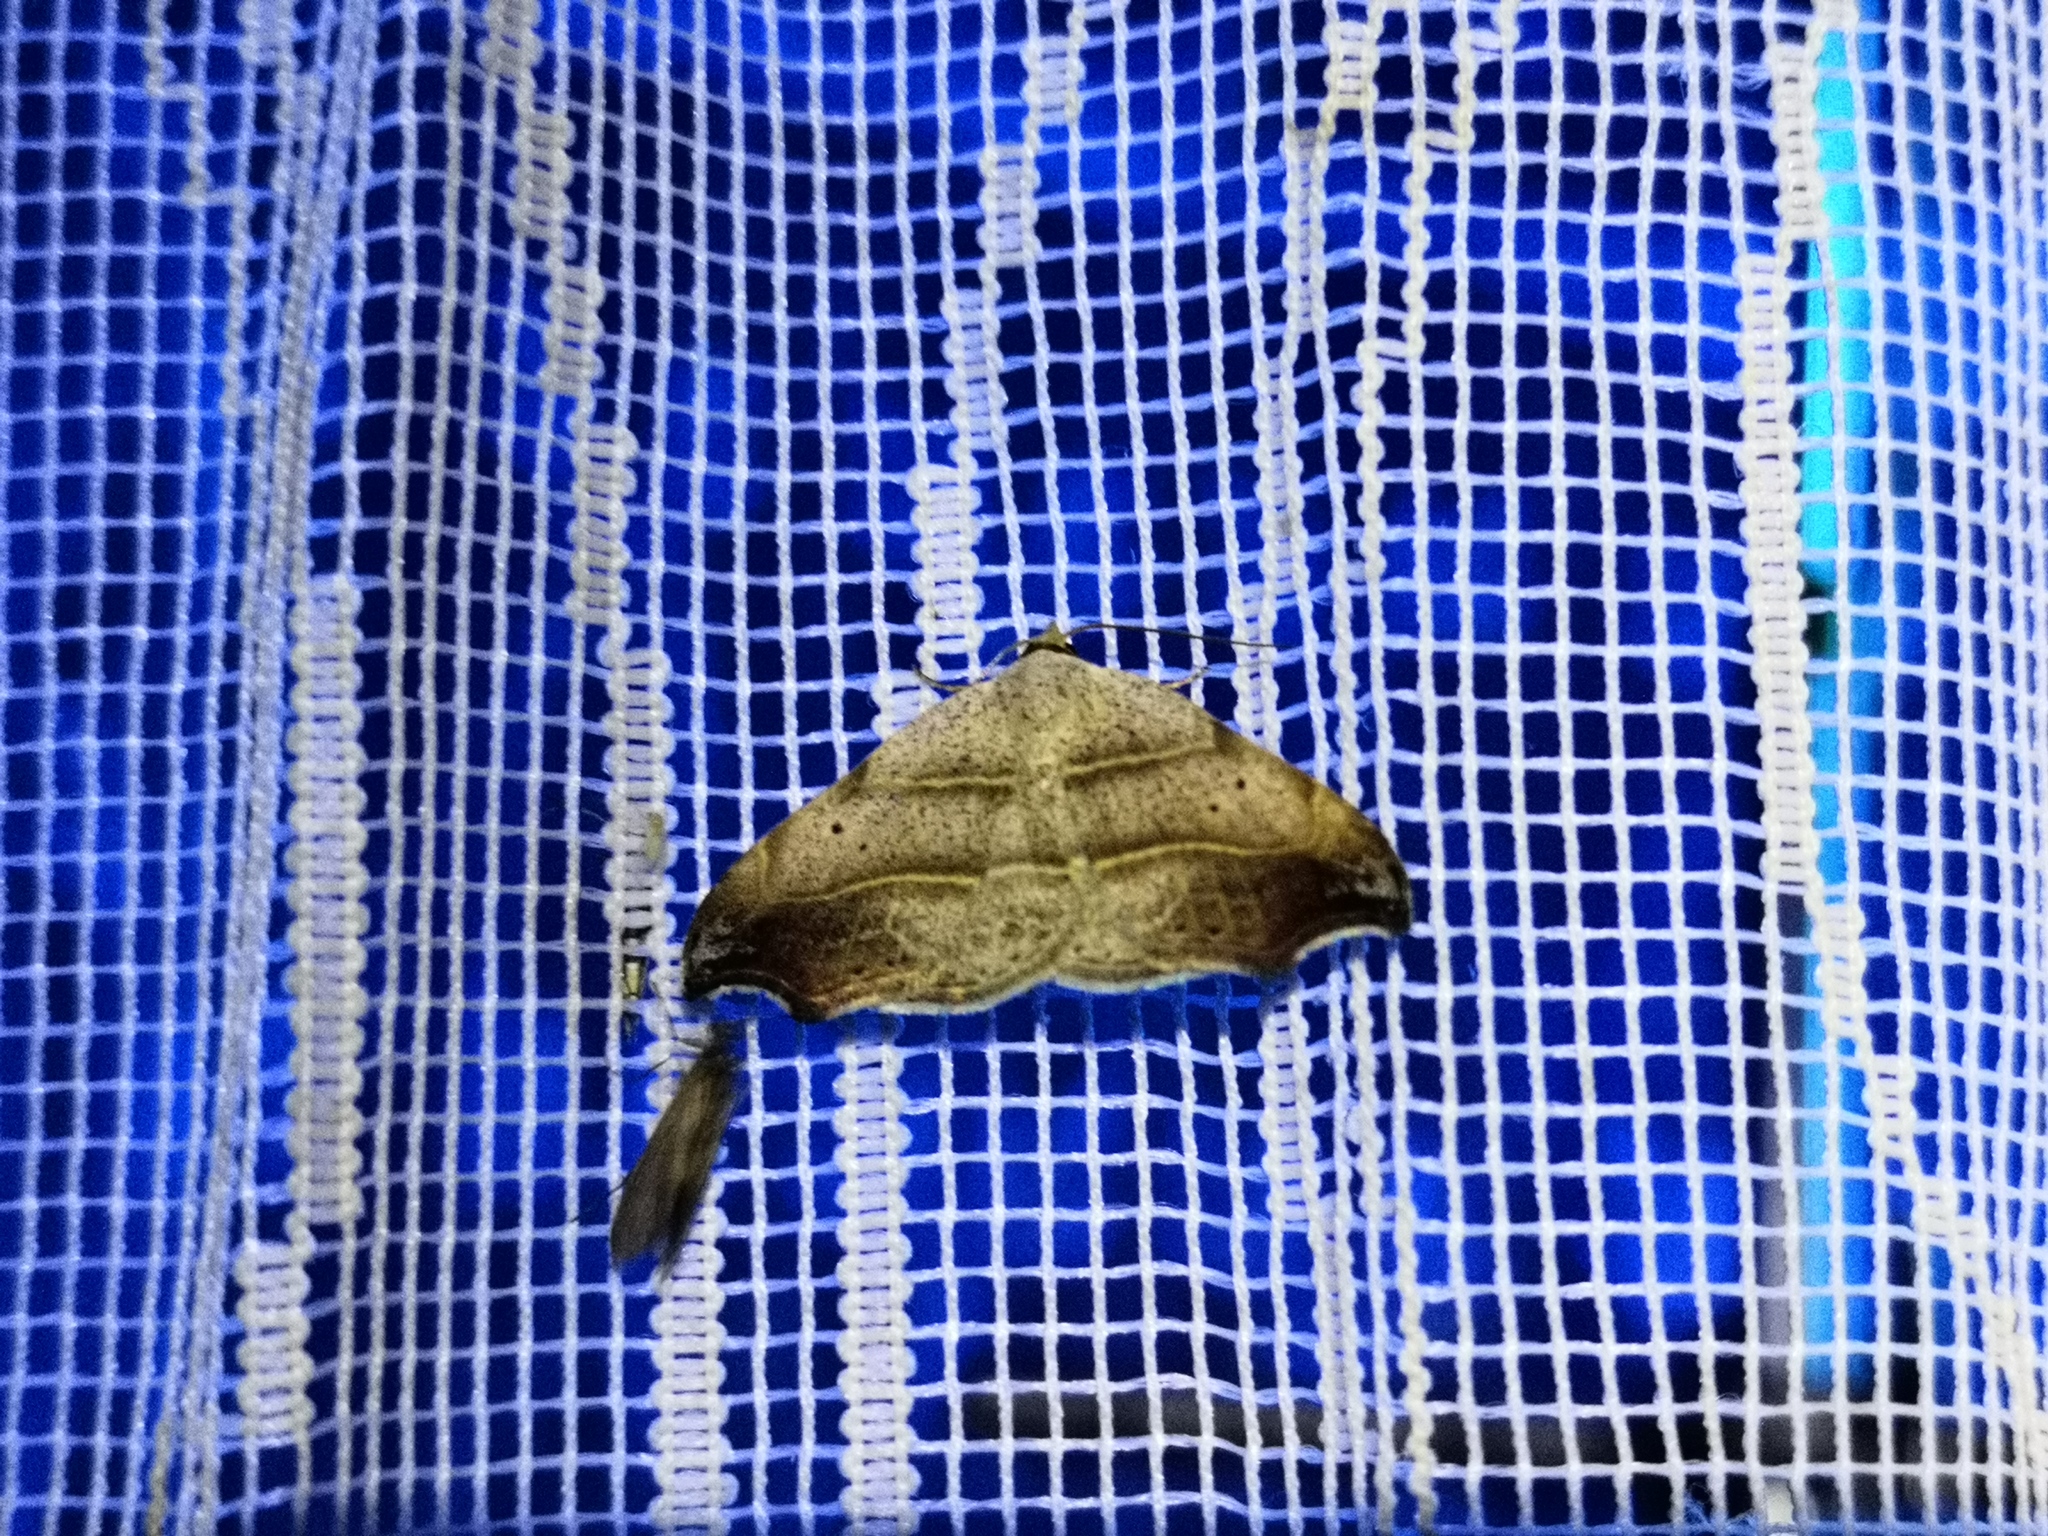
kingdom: Animalia
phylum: Arthropoda
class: Insecta
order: Lepidoptera
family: Erebidae
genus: Laspeyria
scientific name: Laspeyria flexula
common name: Beautiful hook-tip
